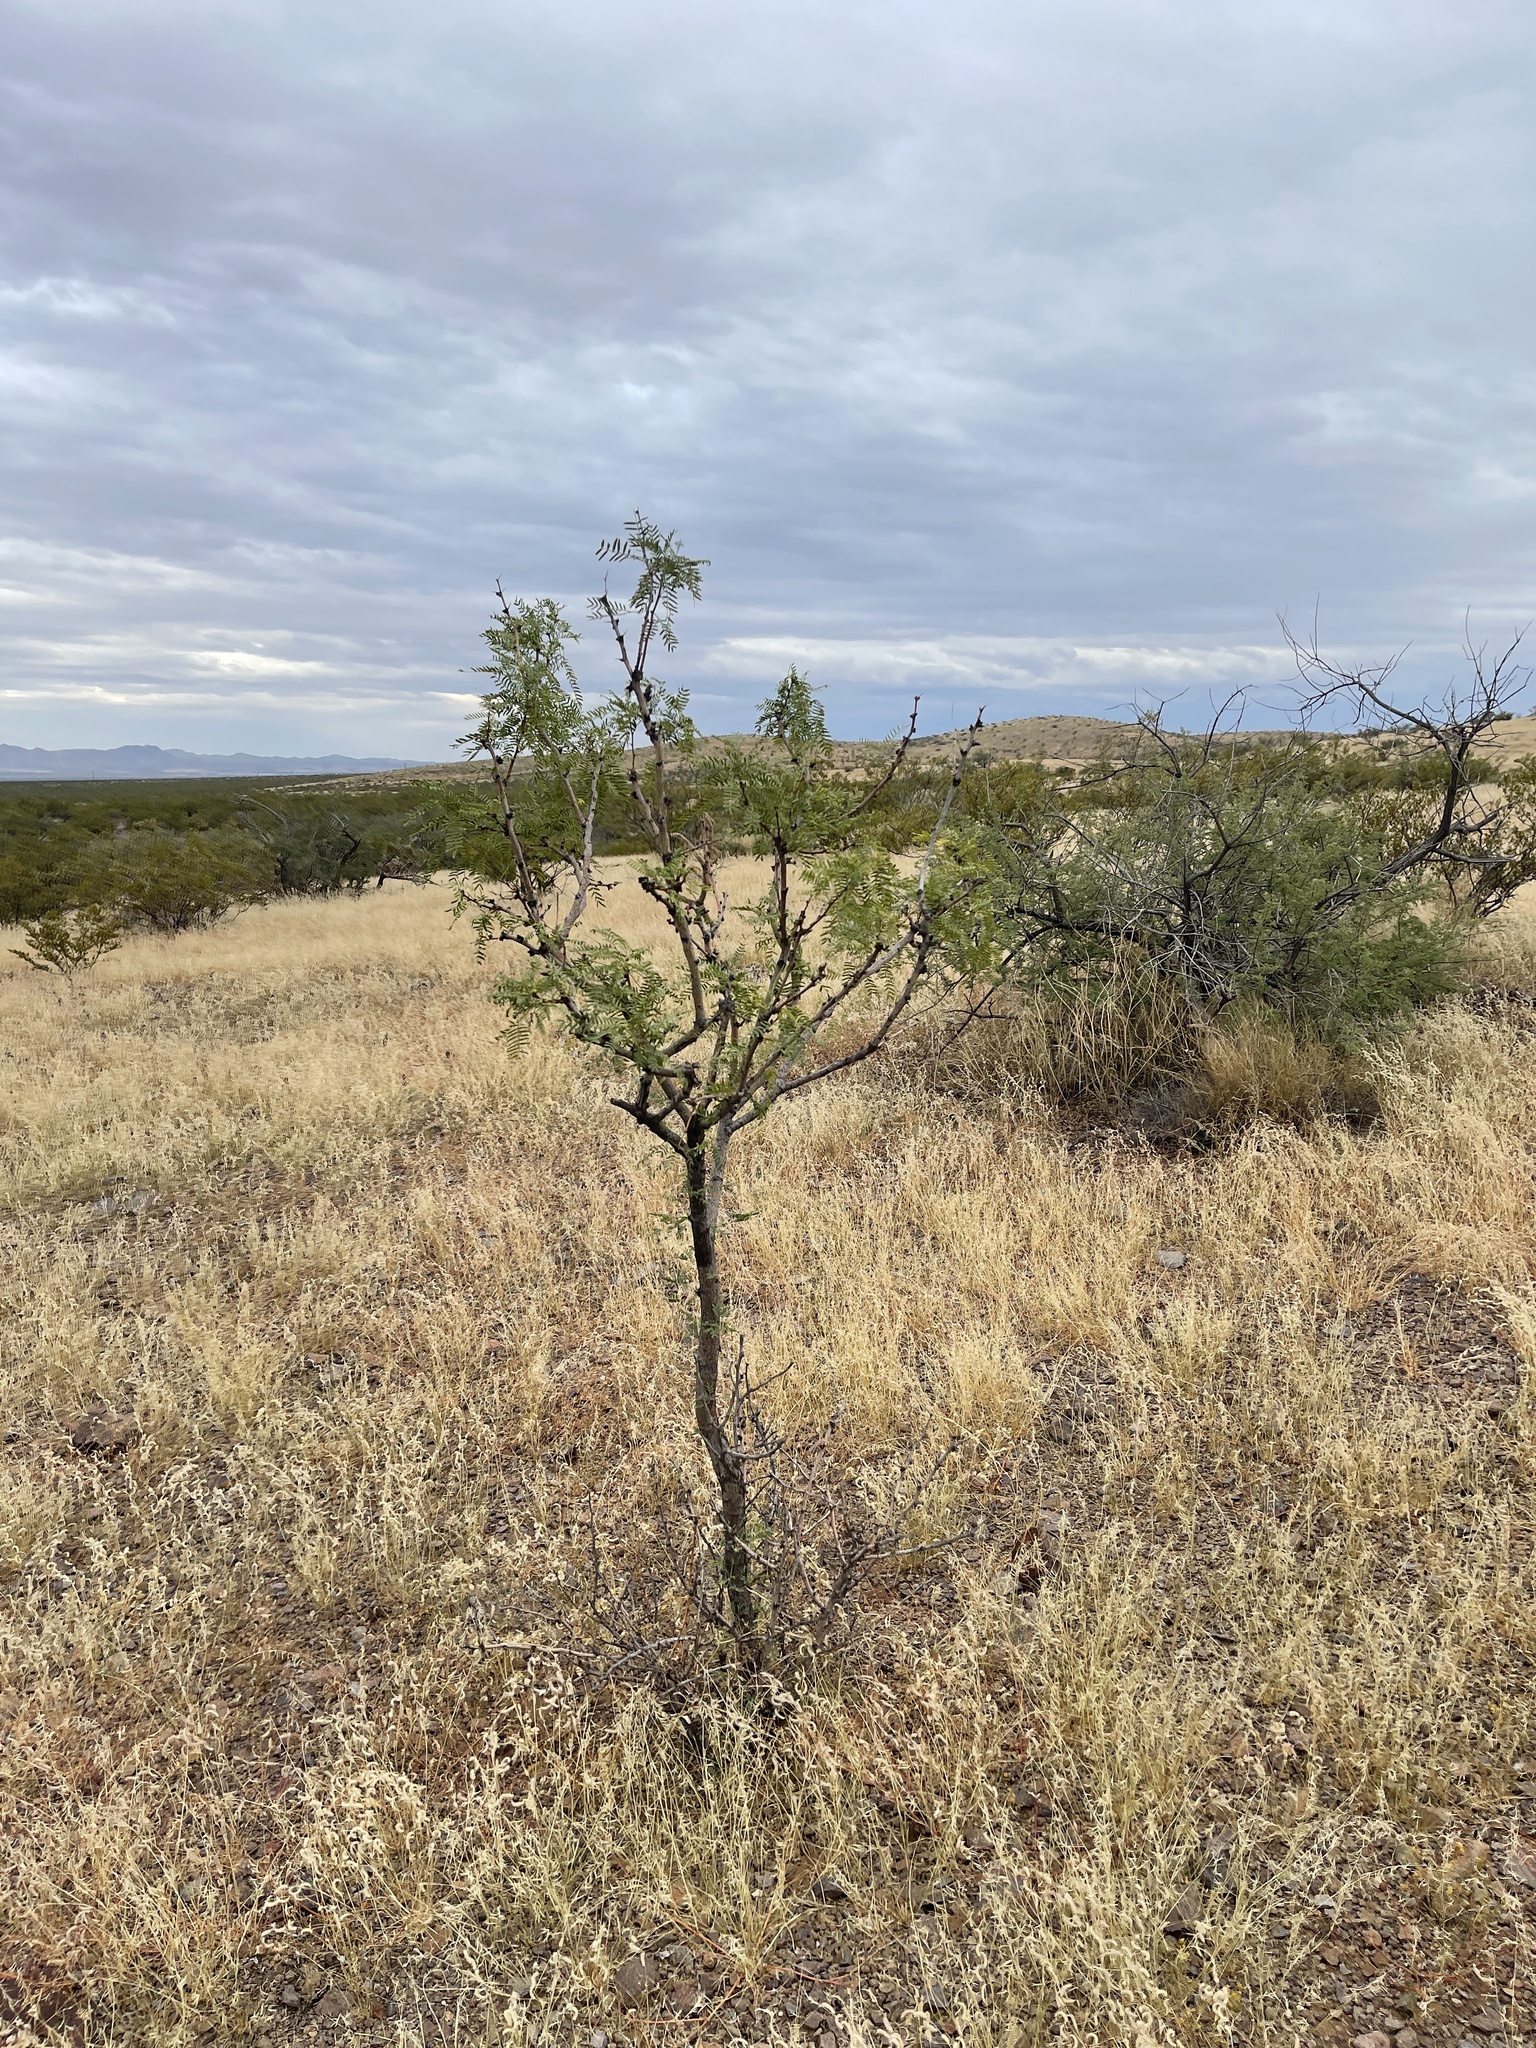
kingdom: Plantae
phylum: Tracheophyta
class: Magnoliopsida
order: Fabales
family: Fabaceae
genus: Prosopis
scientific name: Prosopis glandulosa
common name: Honey mesquite
